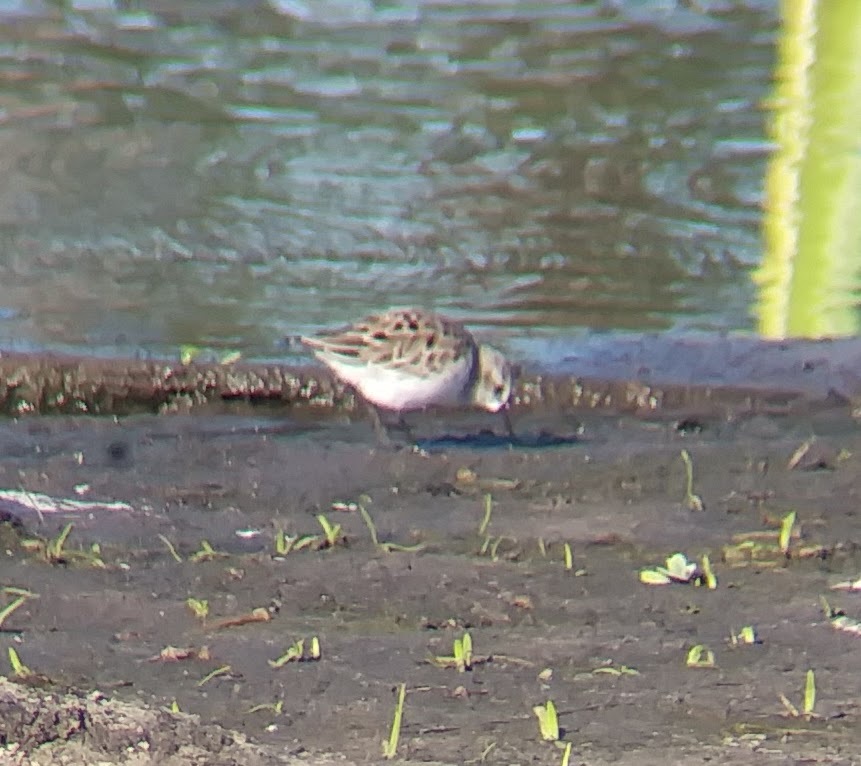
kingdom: Animalia
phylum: Chordata
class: Aves
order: Charadriiformes
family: Scolopacidae
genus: Calidris
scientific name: Calidris pusilla
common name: Semipalmated sandpiper
